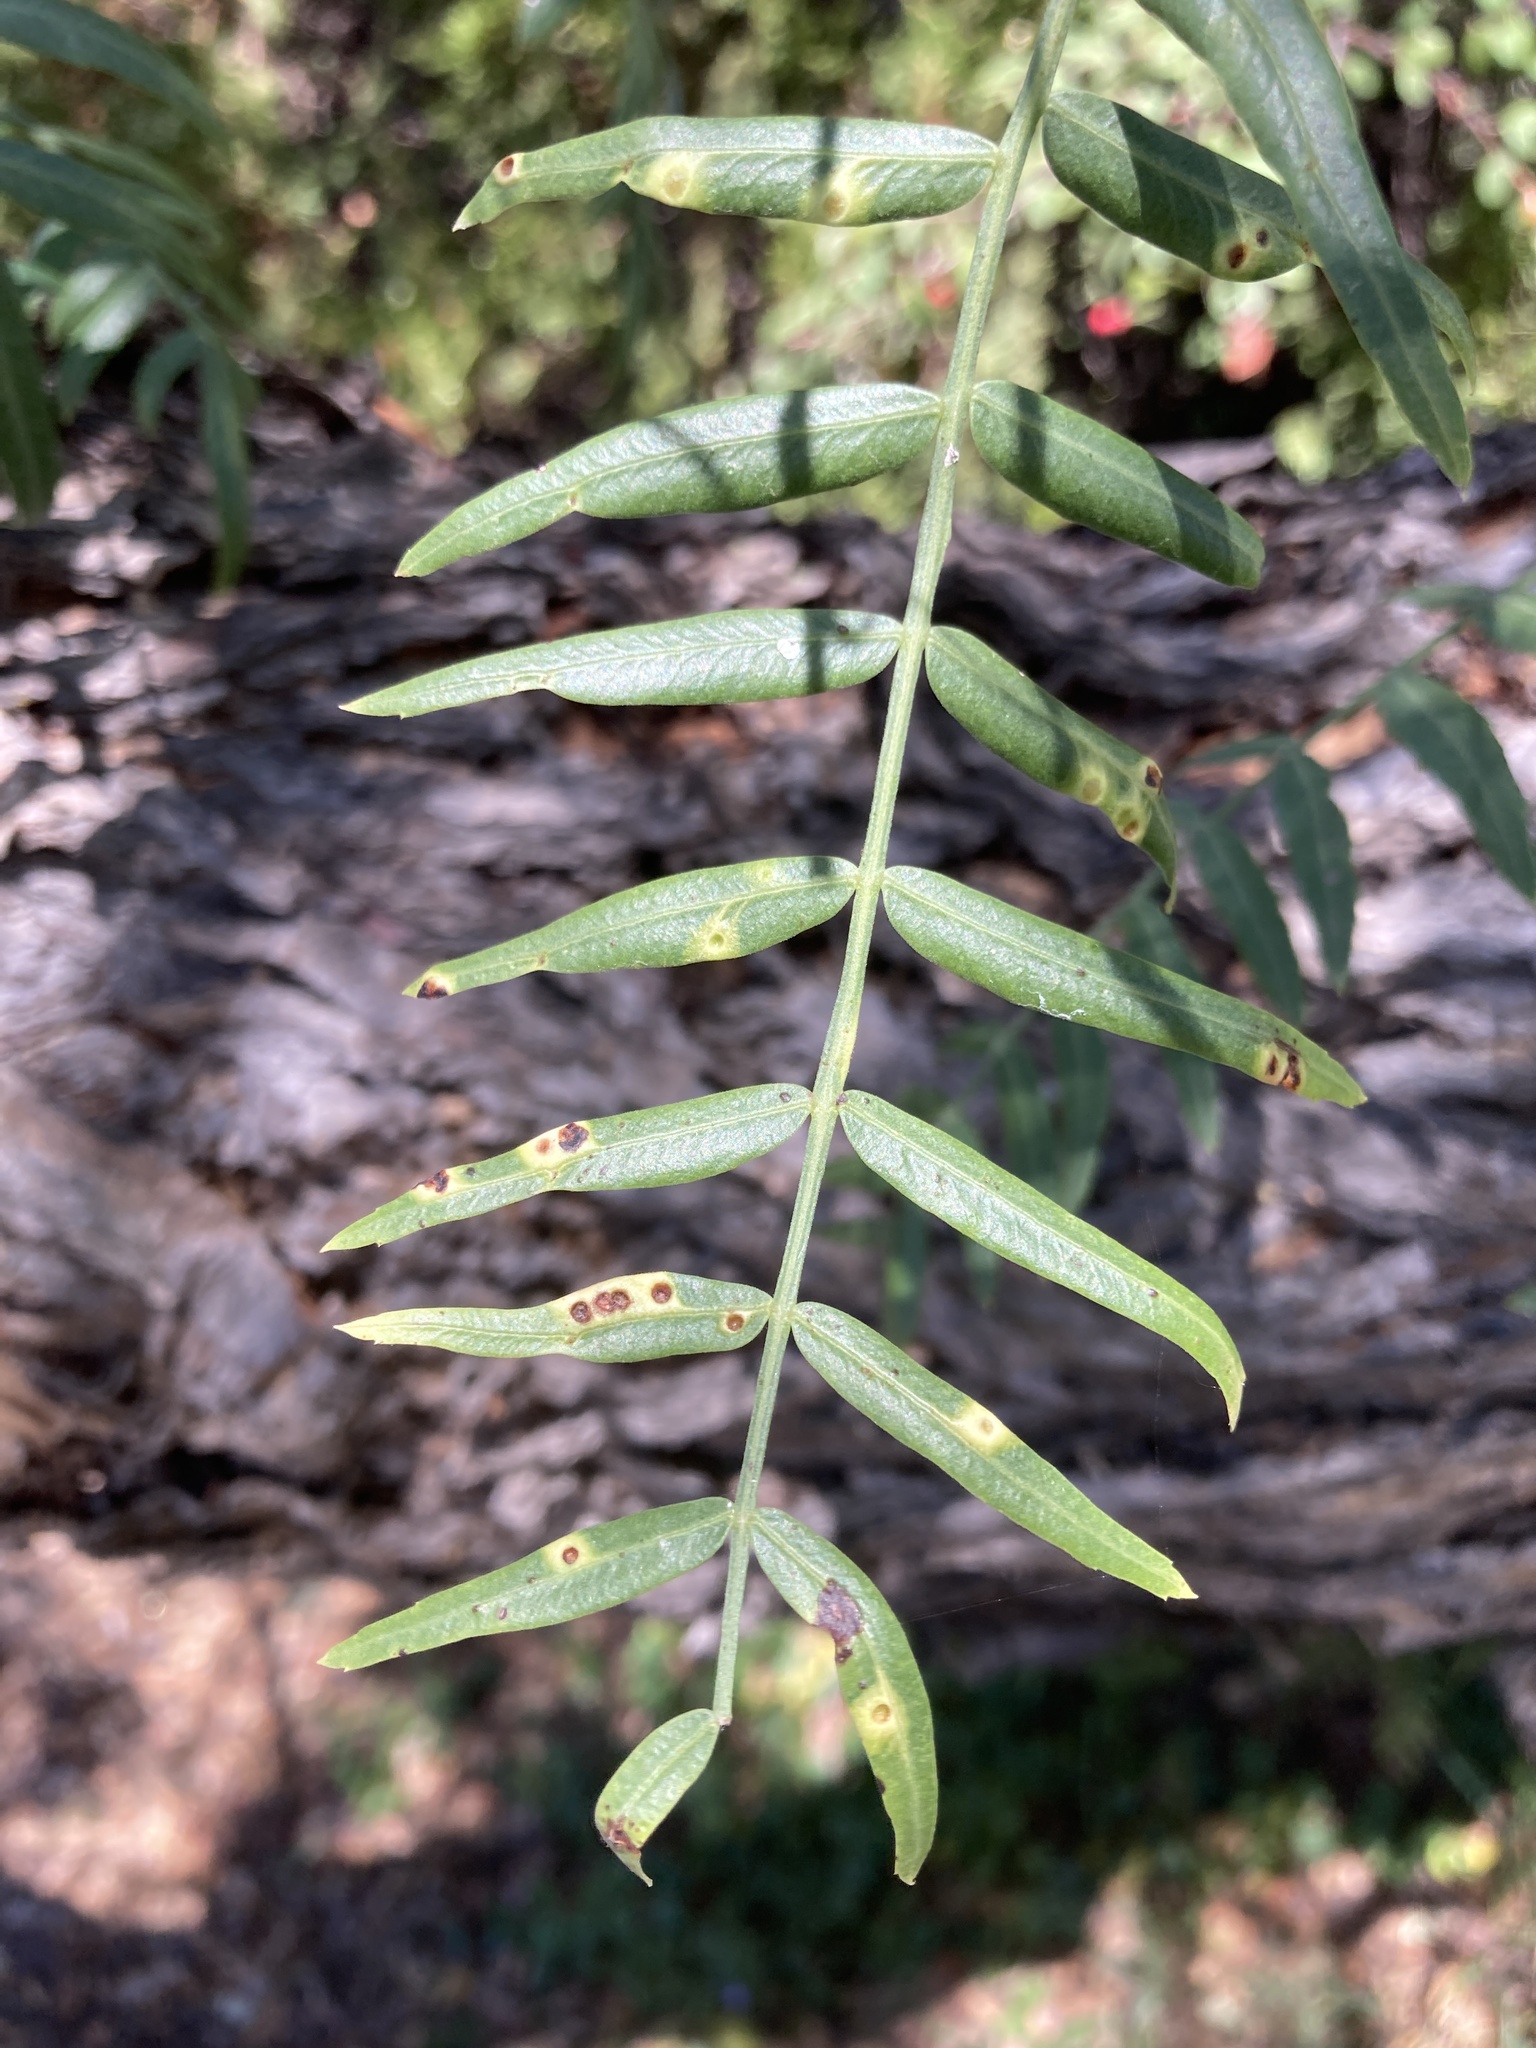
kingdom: Animalia
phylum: Arthropoda
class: Insecta
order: Hemiptera
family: Calophyidae
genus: Calophya
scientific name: Calophya schini
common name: Pepper tree psyllid
